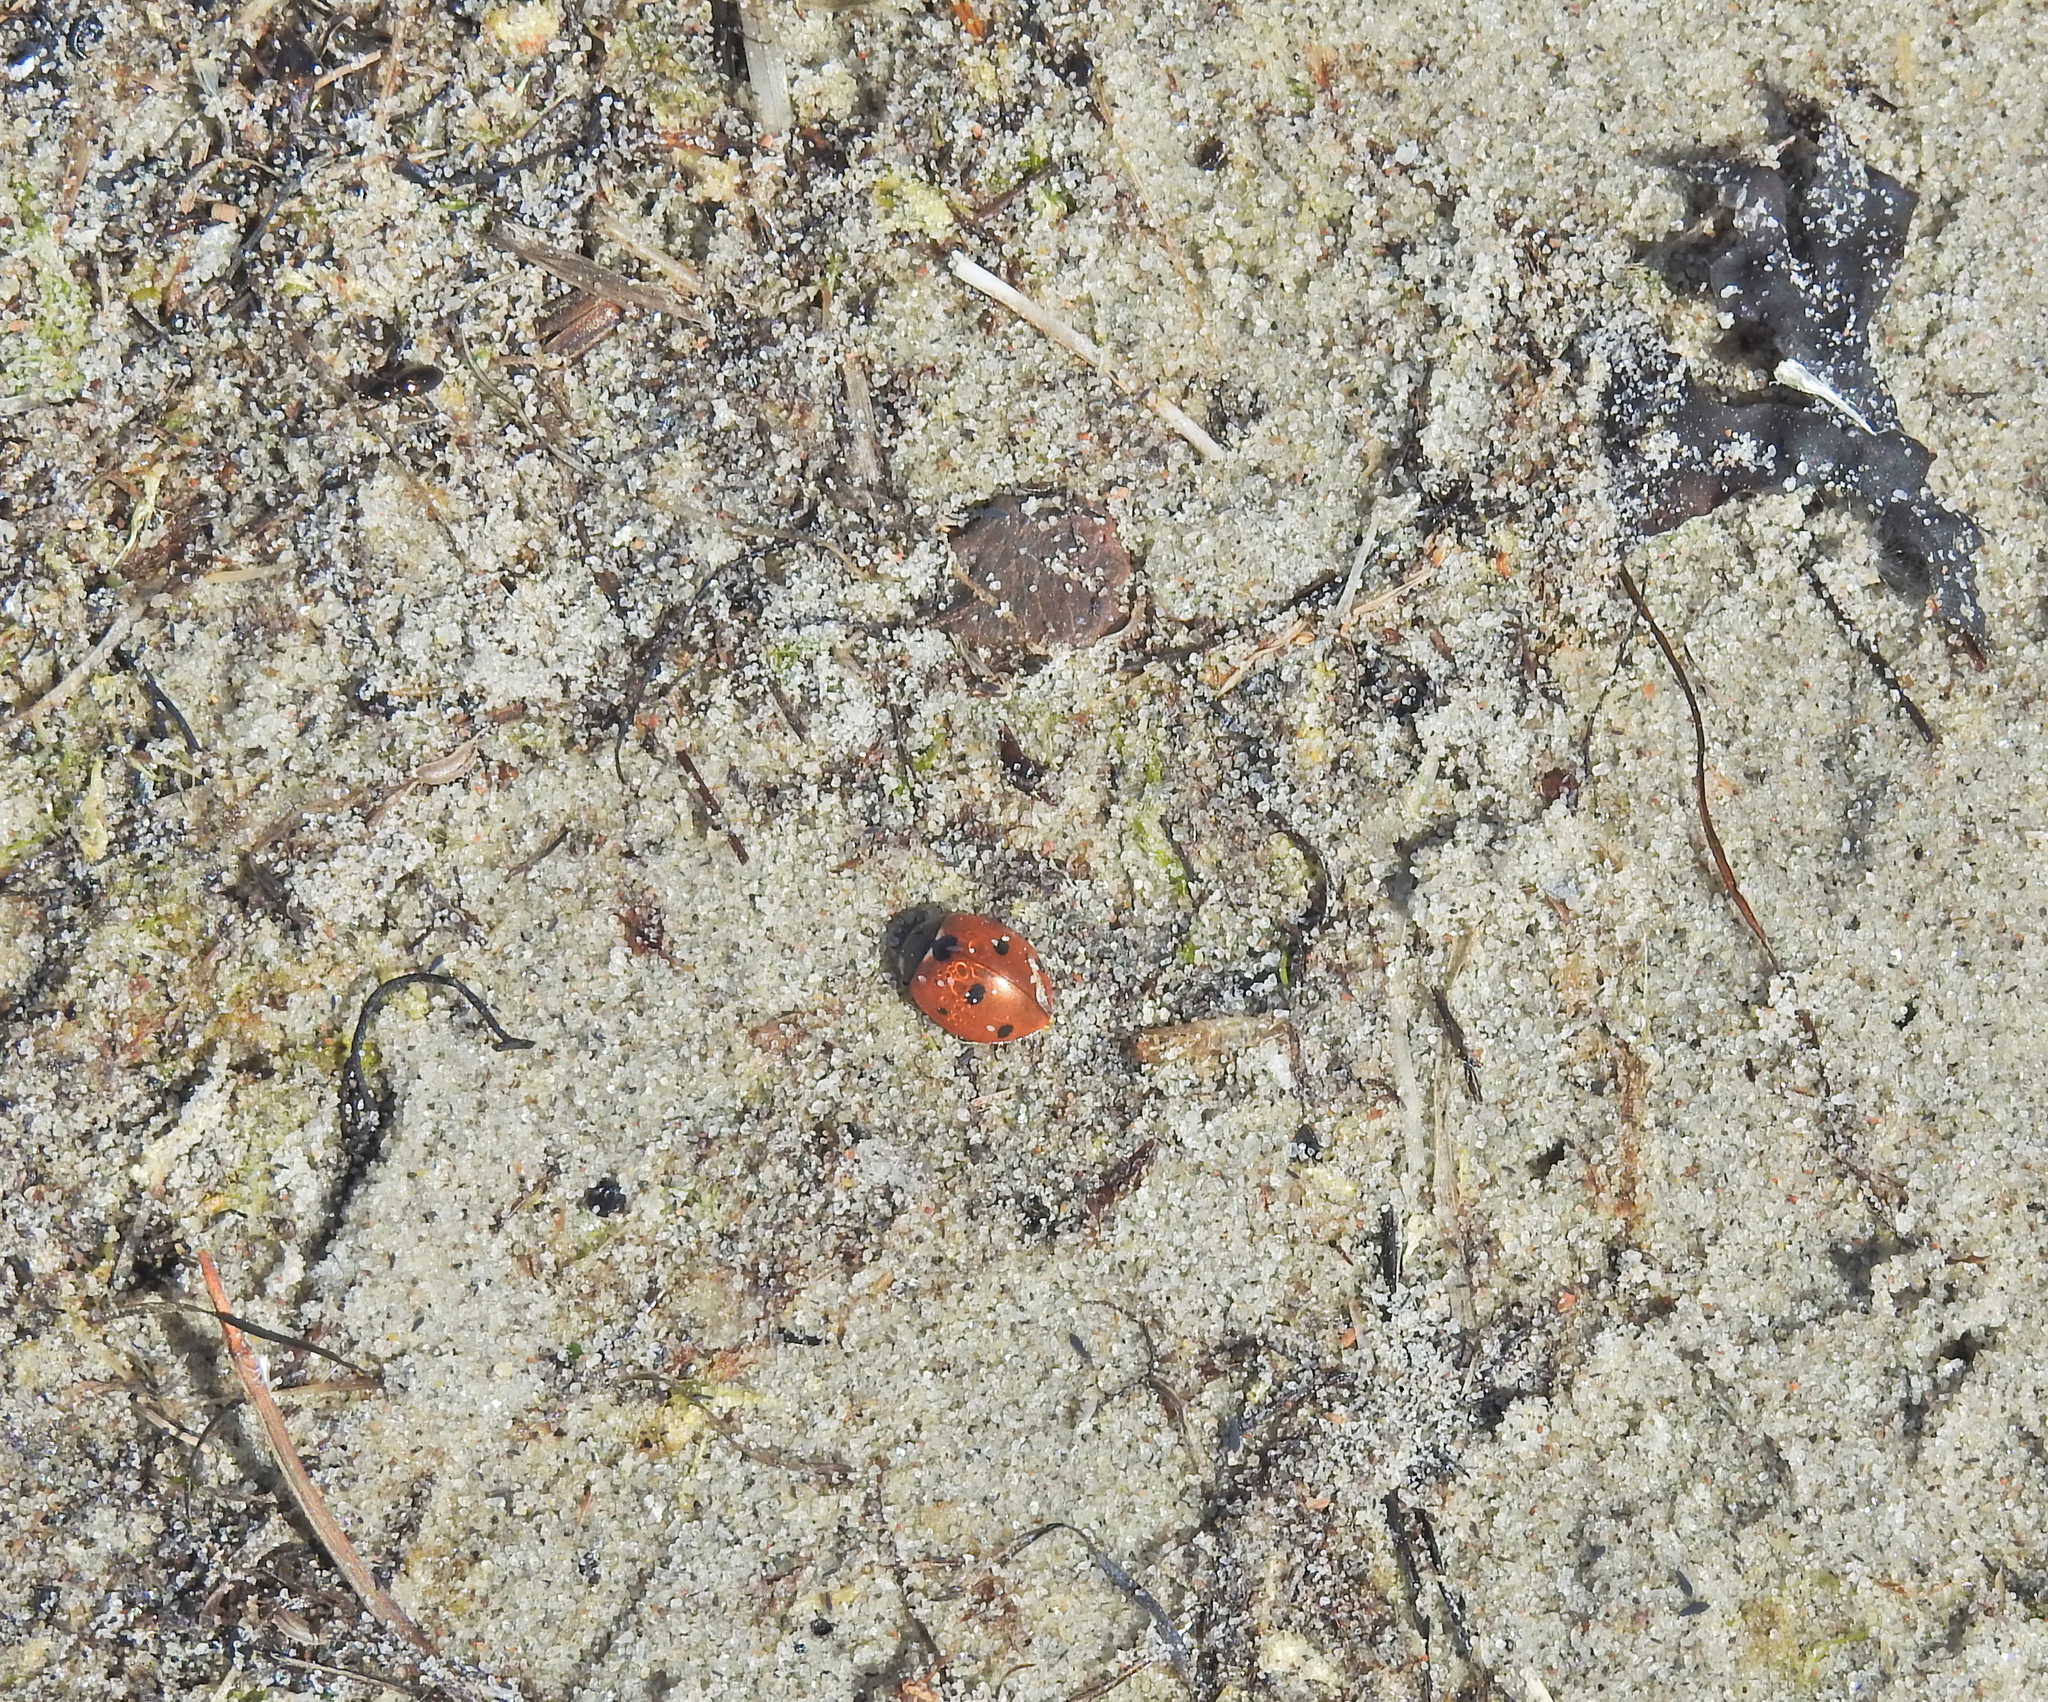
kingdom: Animalia
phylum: Arthropoda
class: Insecta
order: Coleoptera
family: Coccinellidae
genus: Coccinella
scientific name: Coccinella septempunctata
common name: Sevenspotted lady beetle
